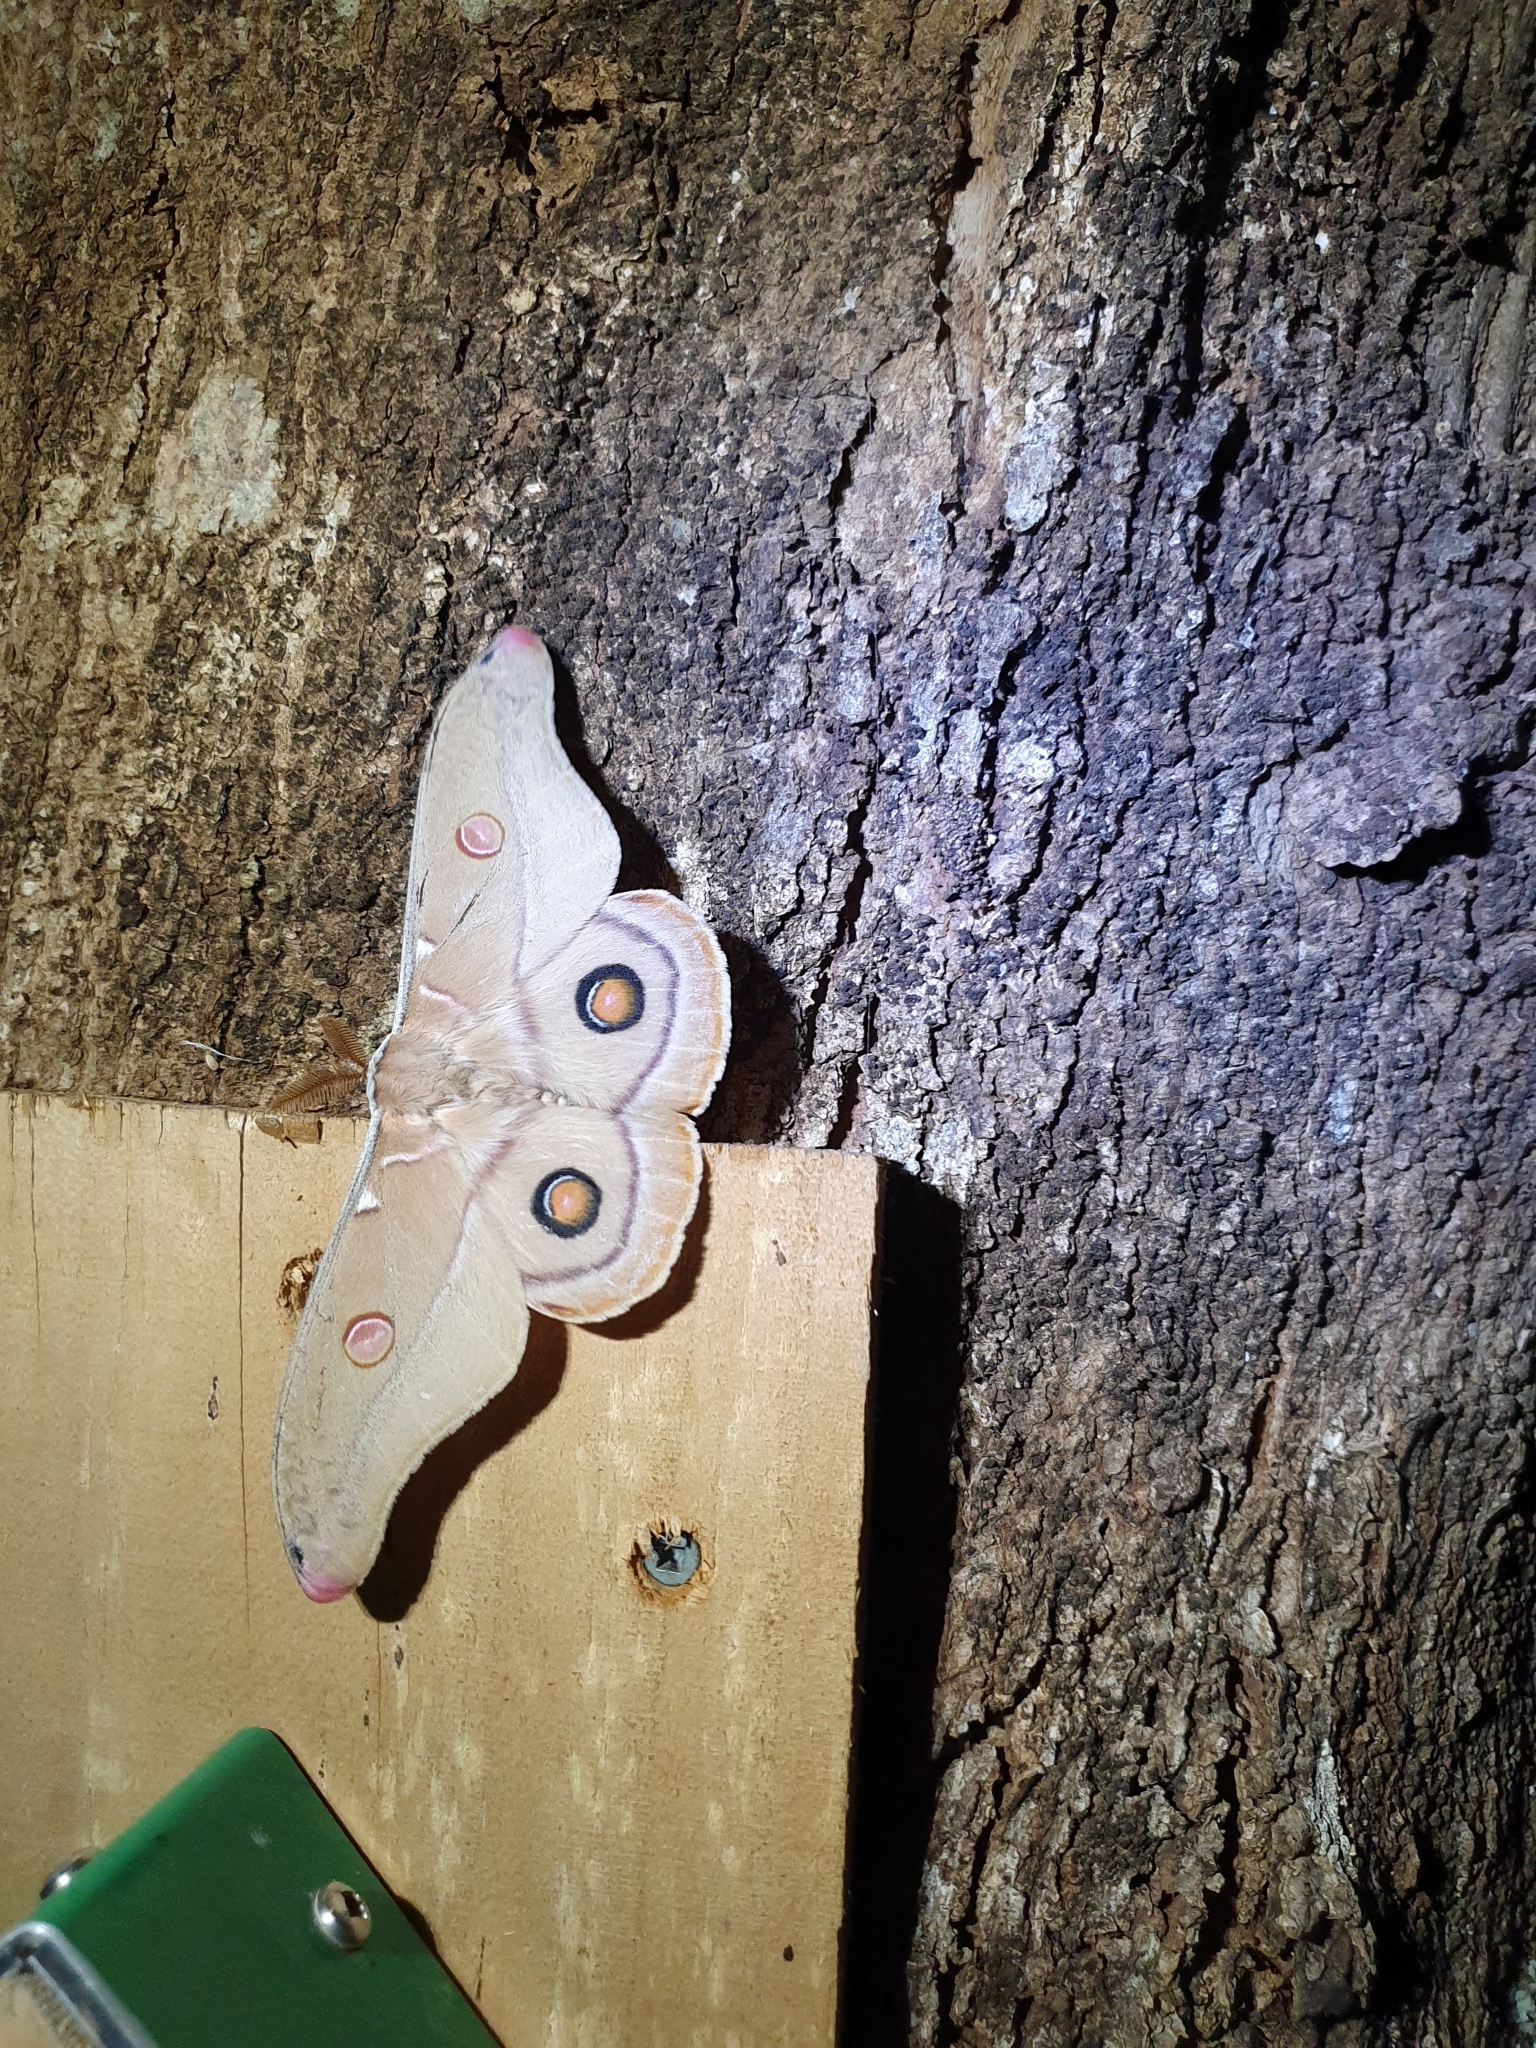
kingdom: Animalia
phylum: Arthropoda
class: Insecta
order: Lepidoptera
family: Saturniidae
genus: Opodiphthera
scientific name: Opodiphthera
